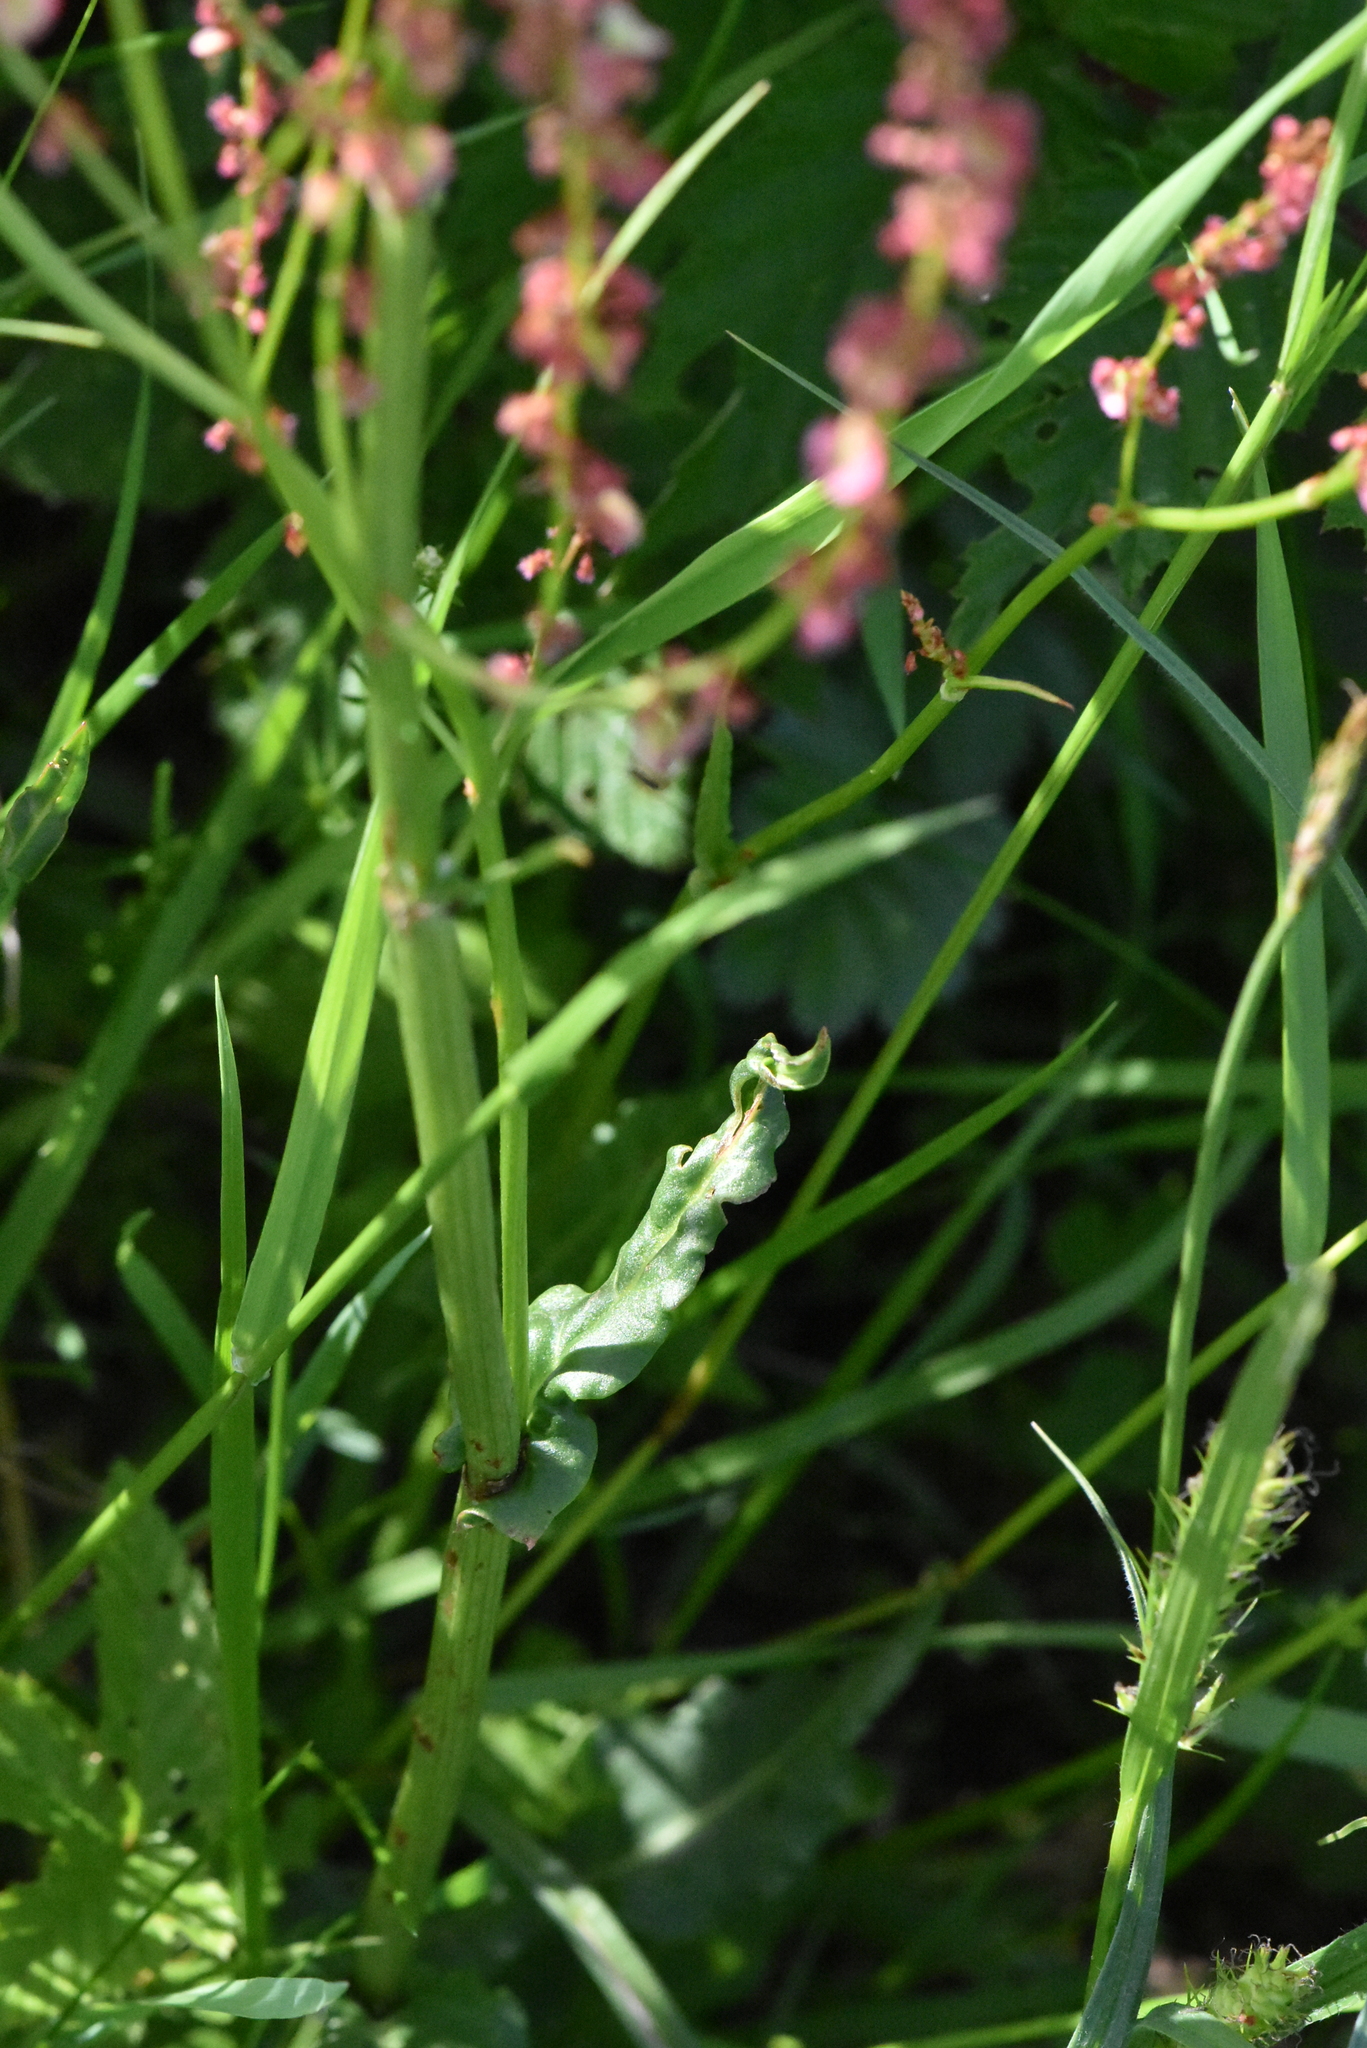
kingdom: Plantae
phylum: Tracheophyta
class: Magnoliopsida
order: Caryophyllales
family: Polygonaceae
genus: Rumex
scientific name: Rumex acetosa
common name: Garden sorrel
